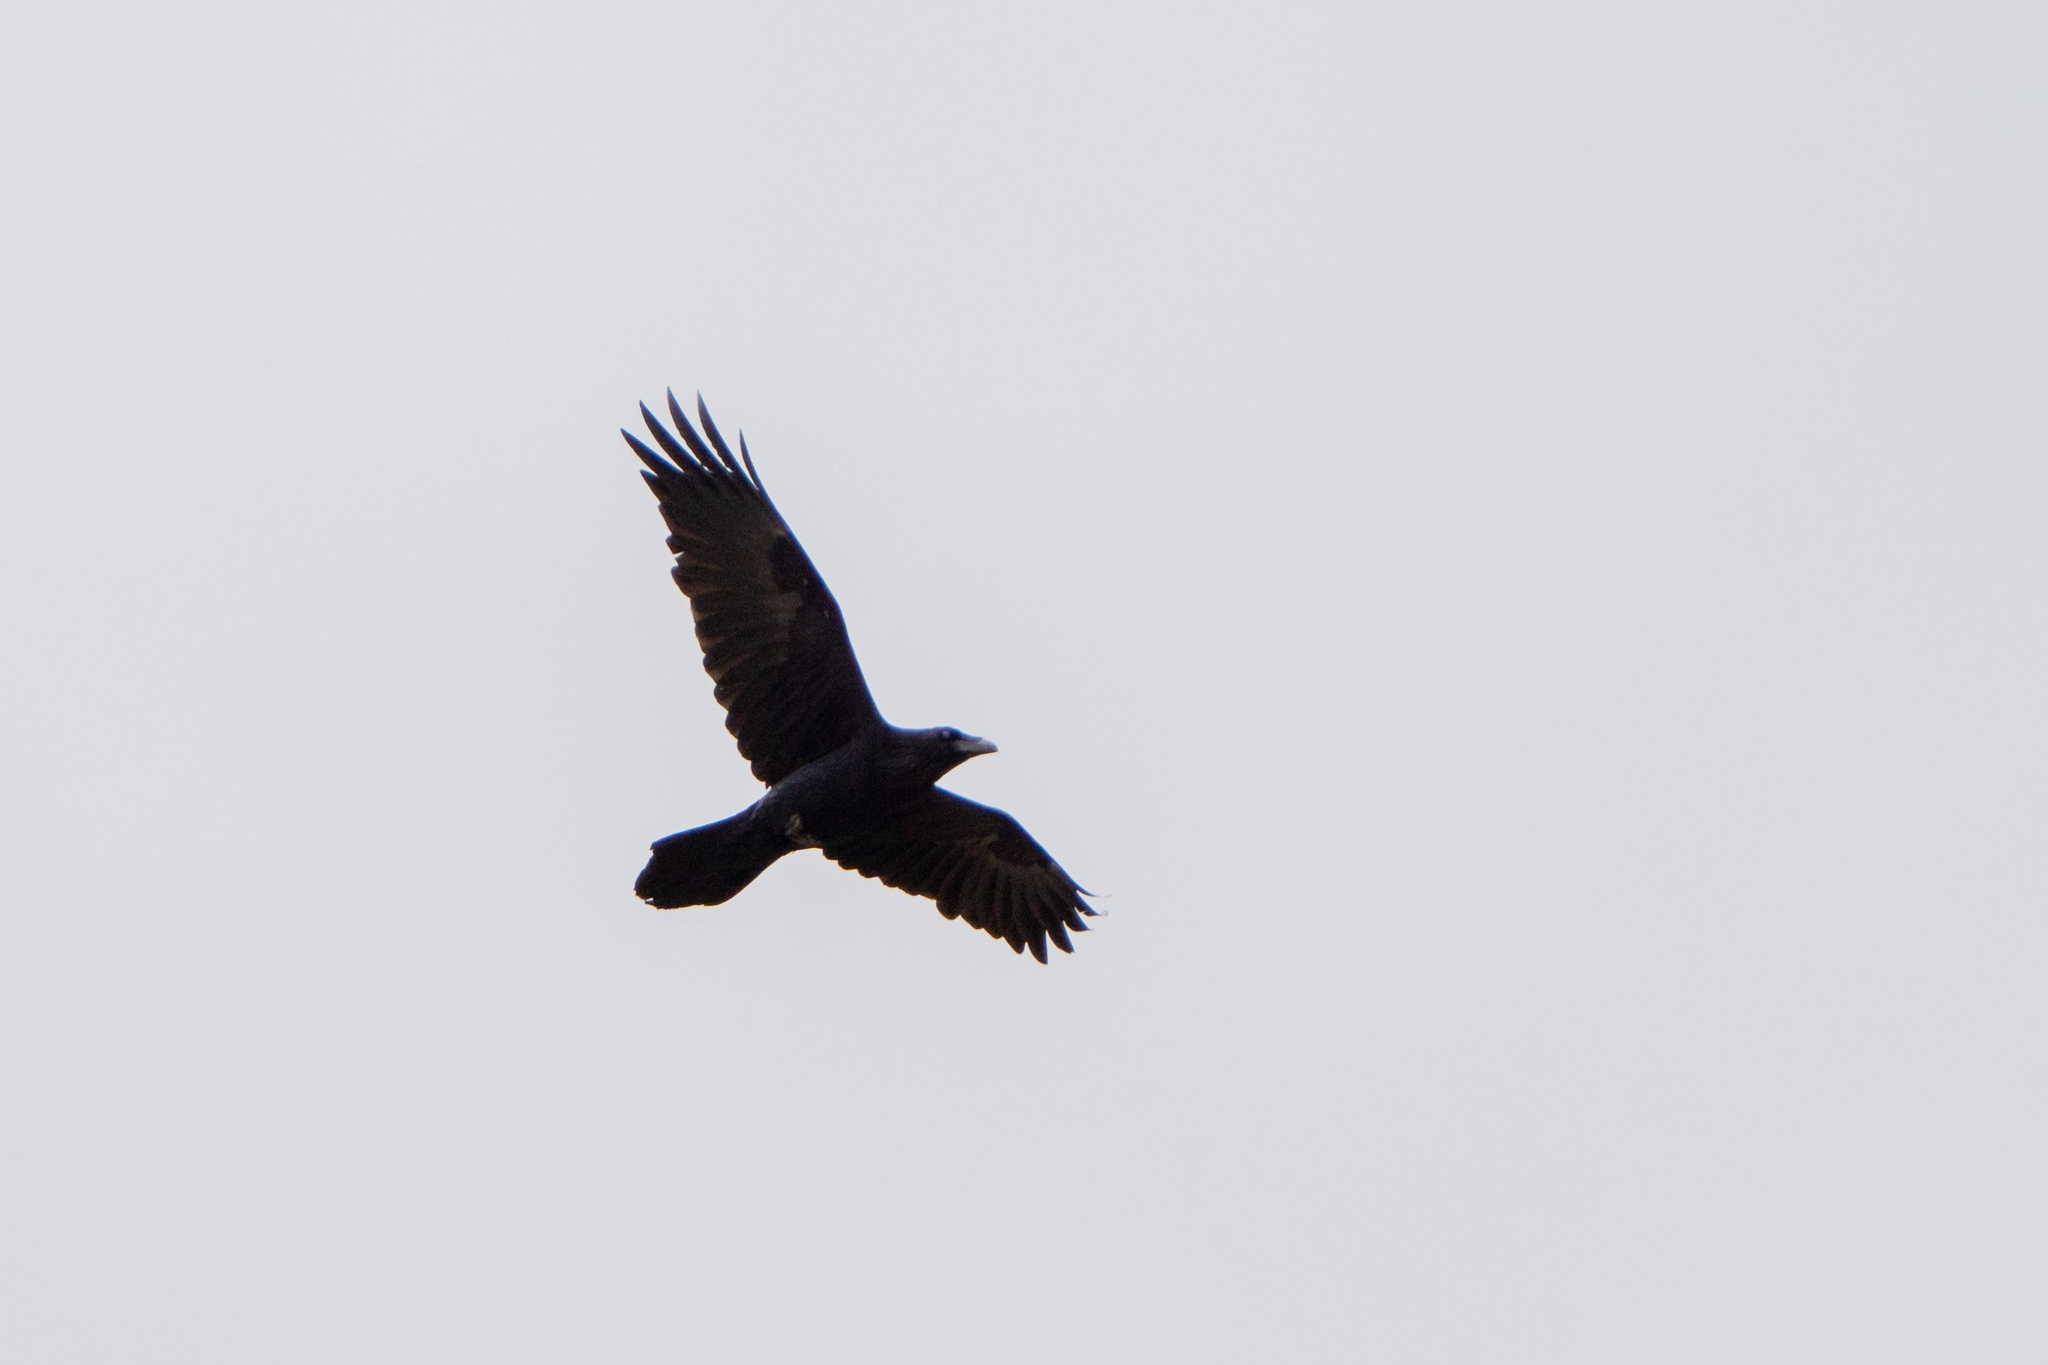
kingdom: Animalia
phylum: Chordata
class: Aves
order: Passeriformes
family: Corvidae
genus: Corvus
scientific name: Corvus corax
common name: Common raven
